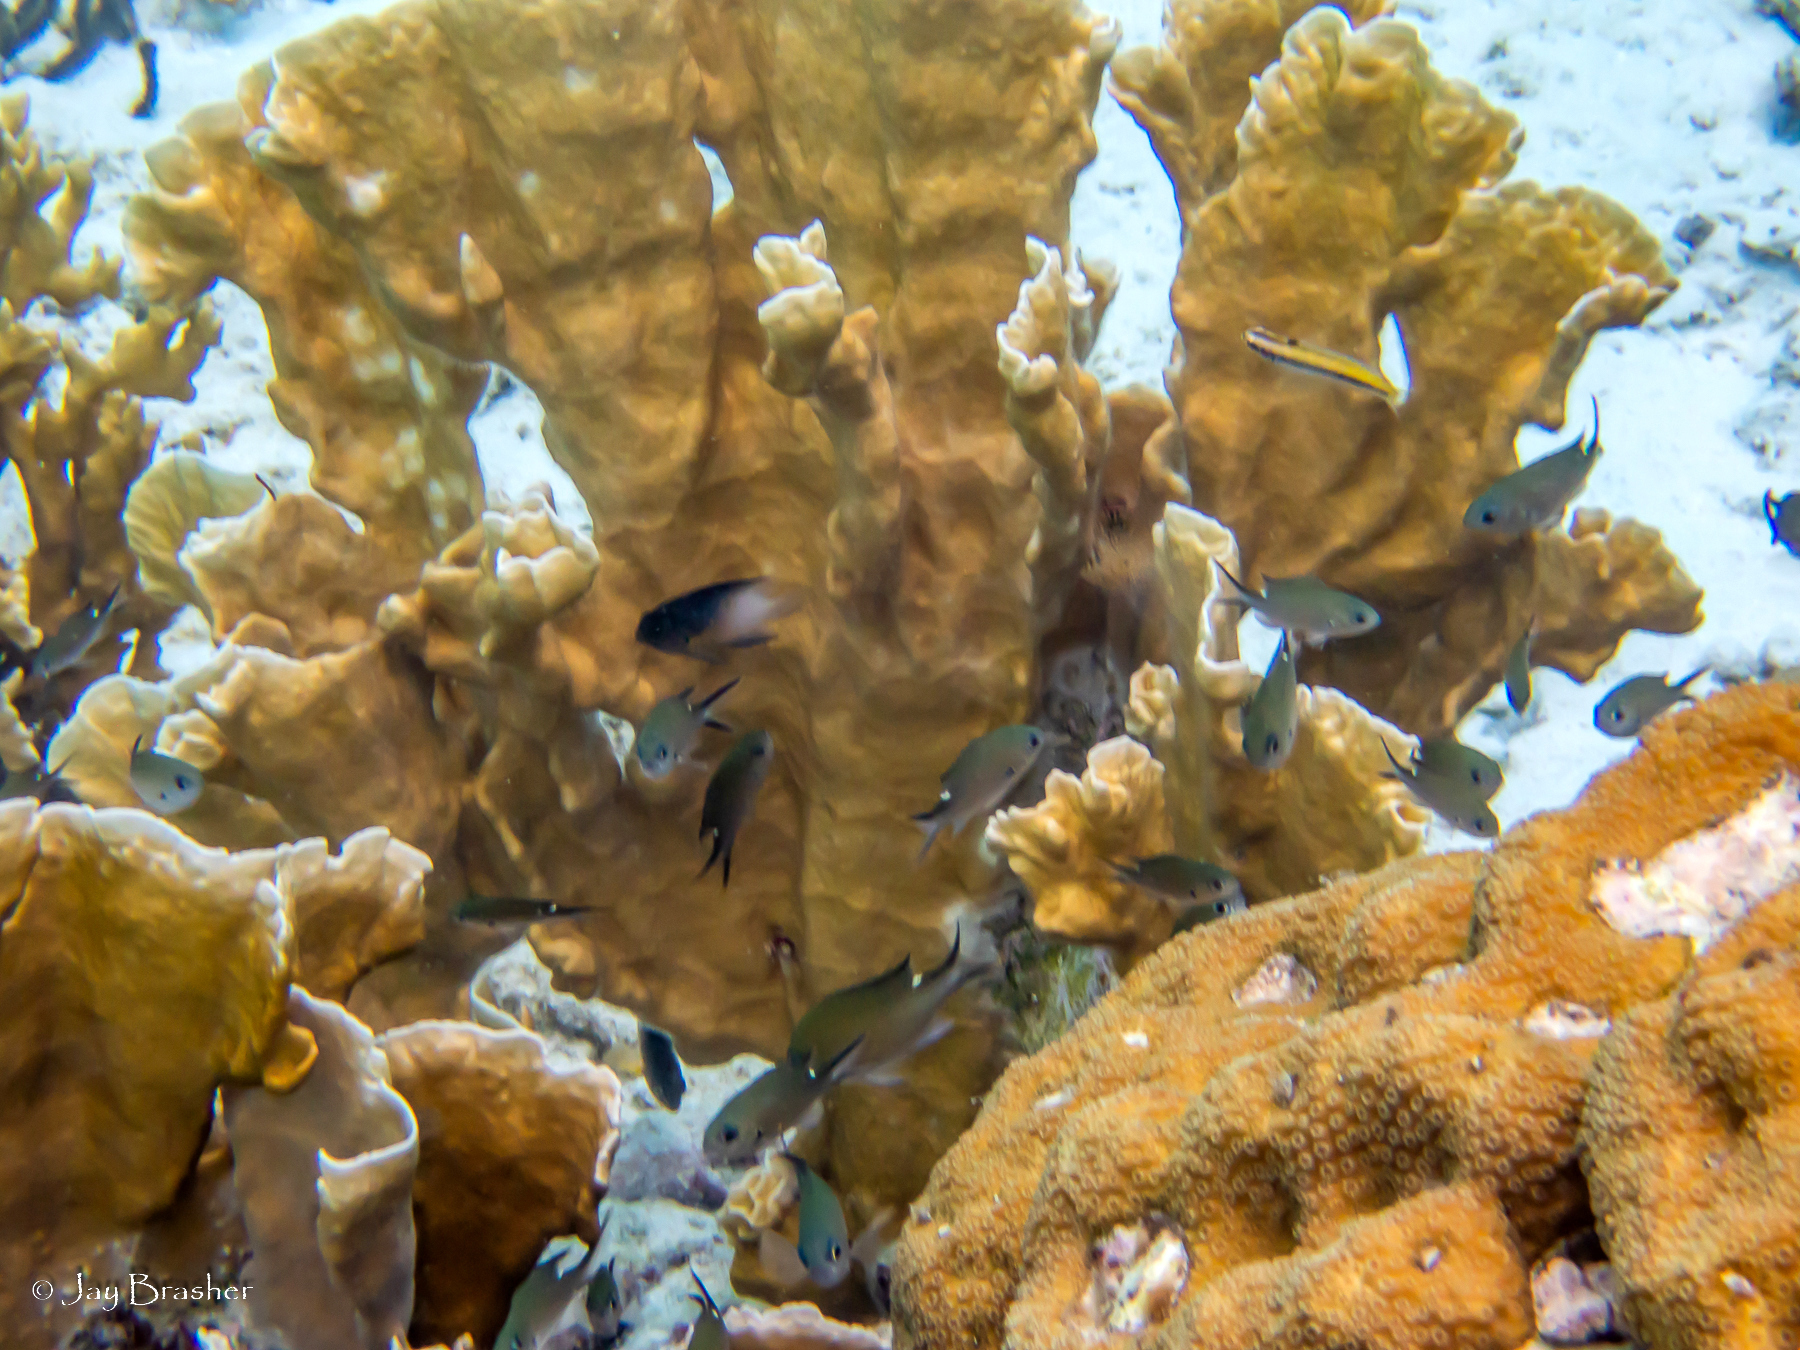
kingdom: Animalia
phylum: Chordata
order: Perciformes
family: Pomacentridae
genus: Chromis
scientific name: Chromis multilineata
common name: Brown chromis
